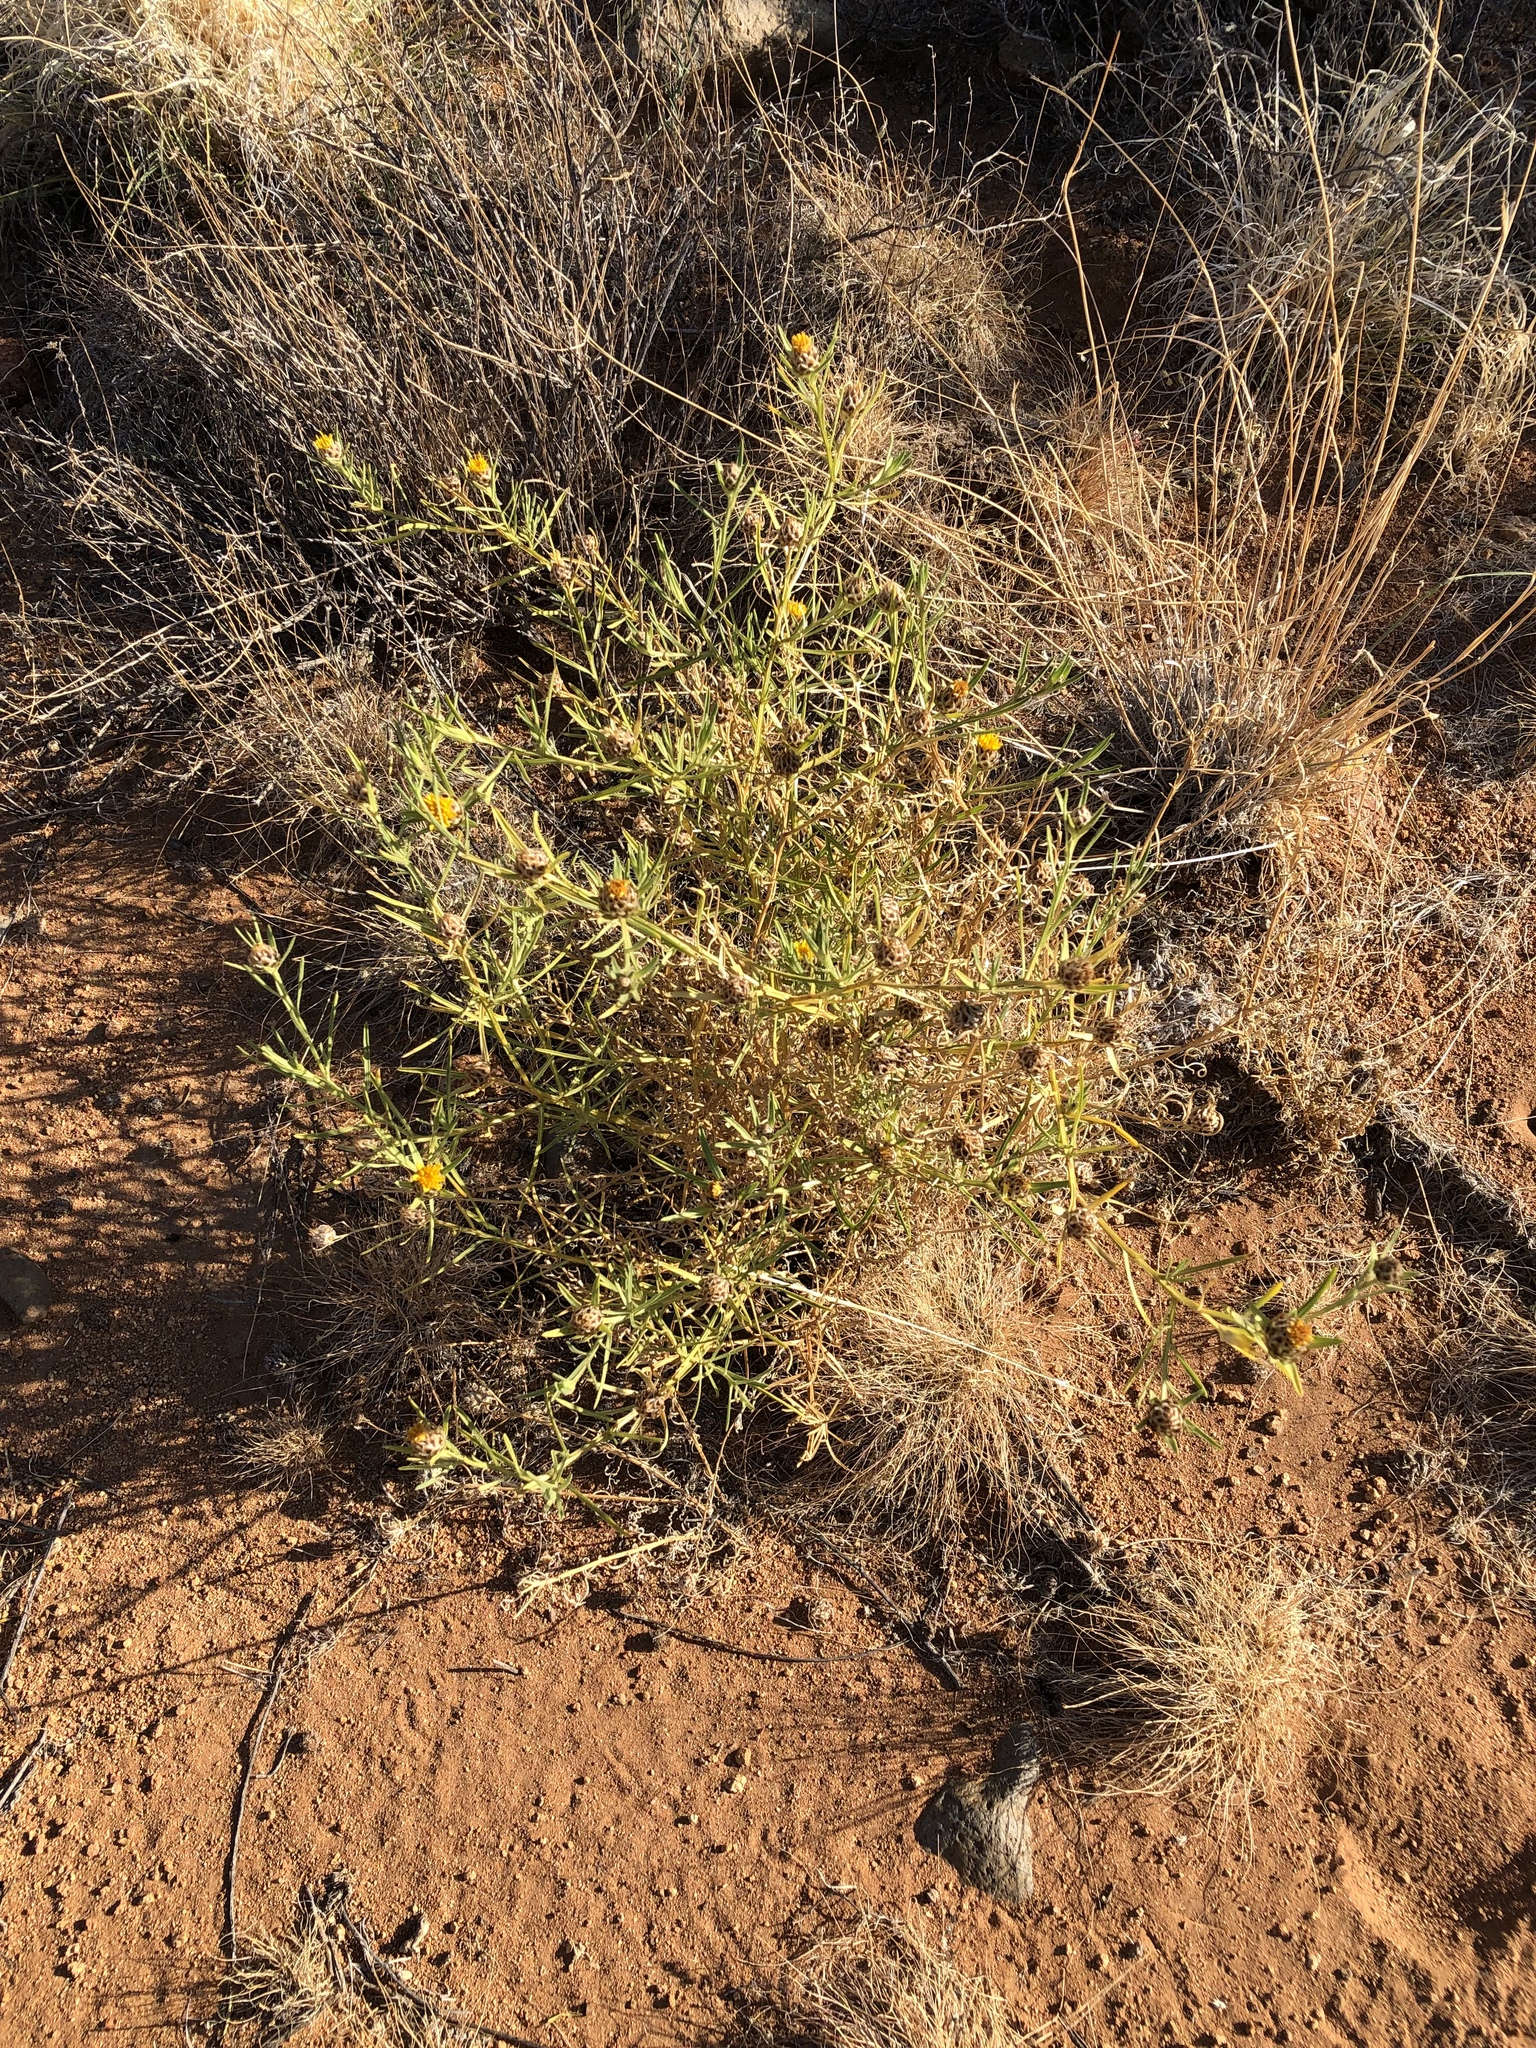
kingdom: Plantae
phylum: Tracheophyta
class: Magnoliopsida
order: Asterales
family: Asteraceae
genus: Ondetia
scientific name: Ondetia linearis
